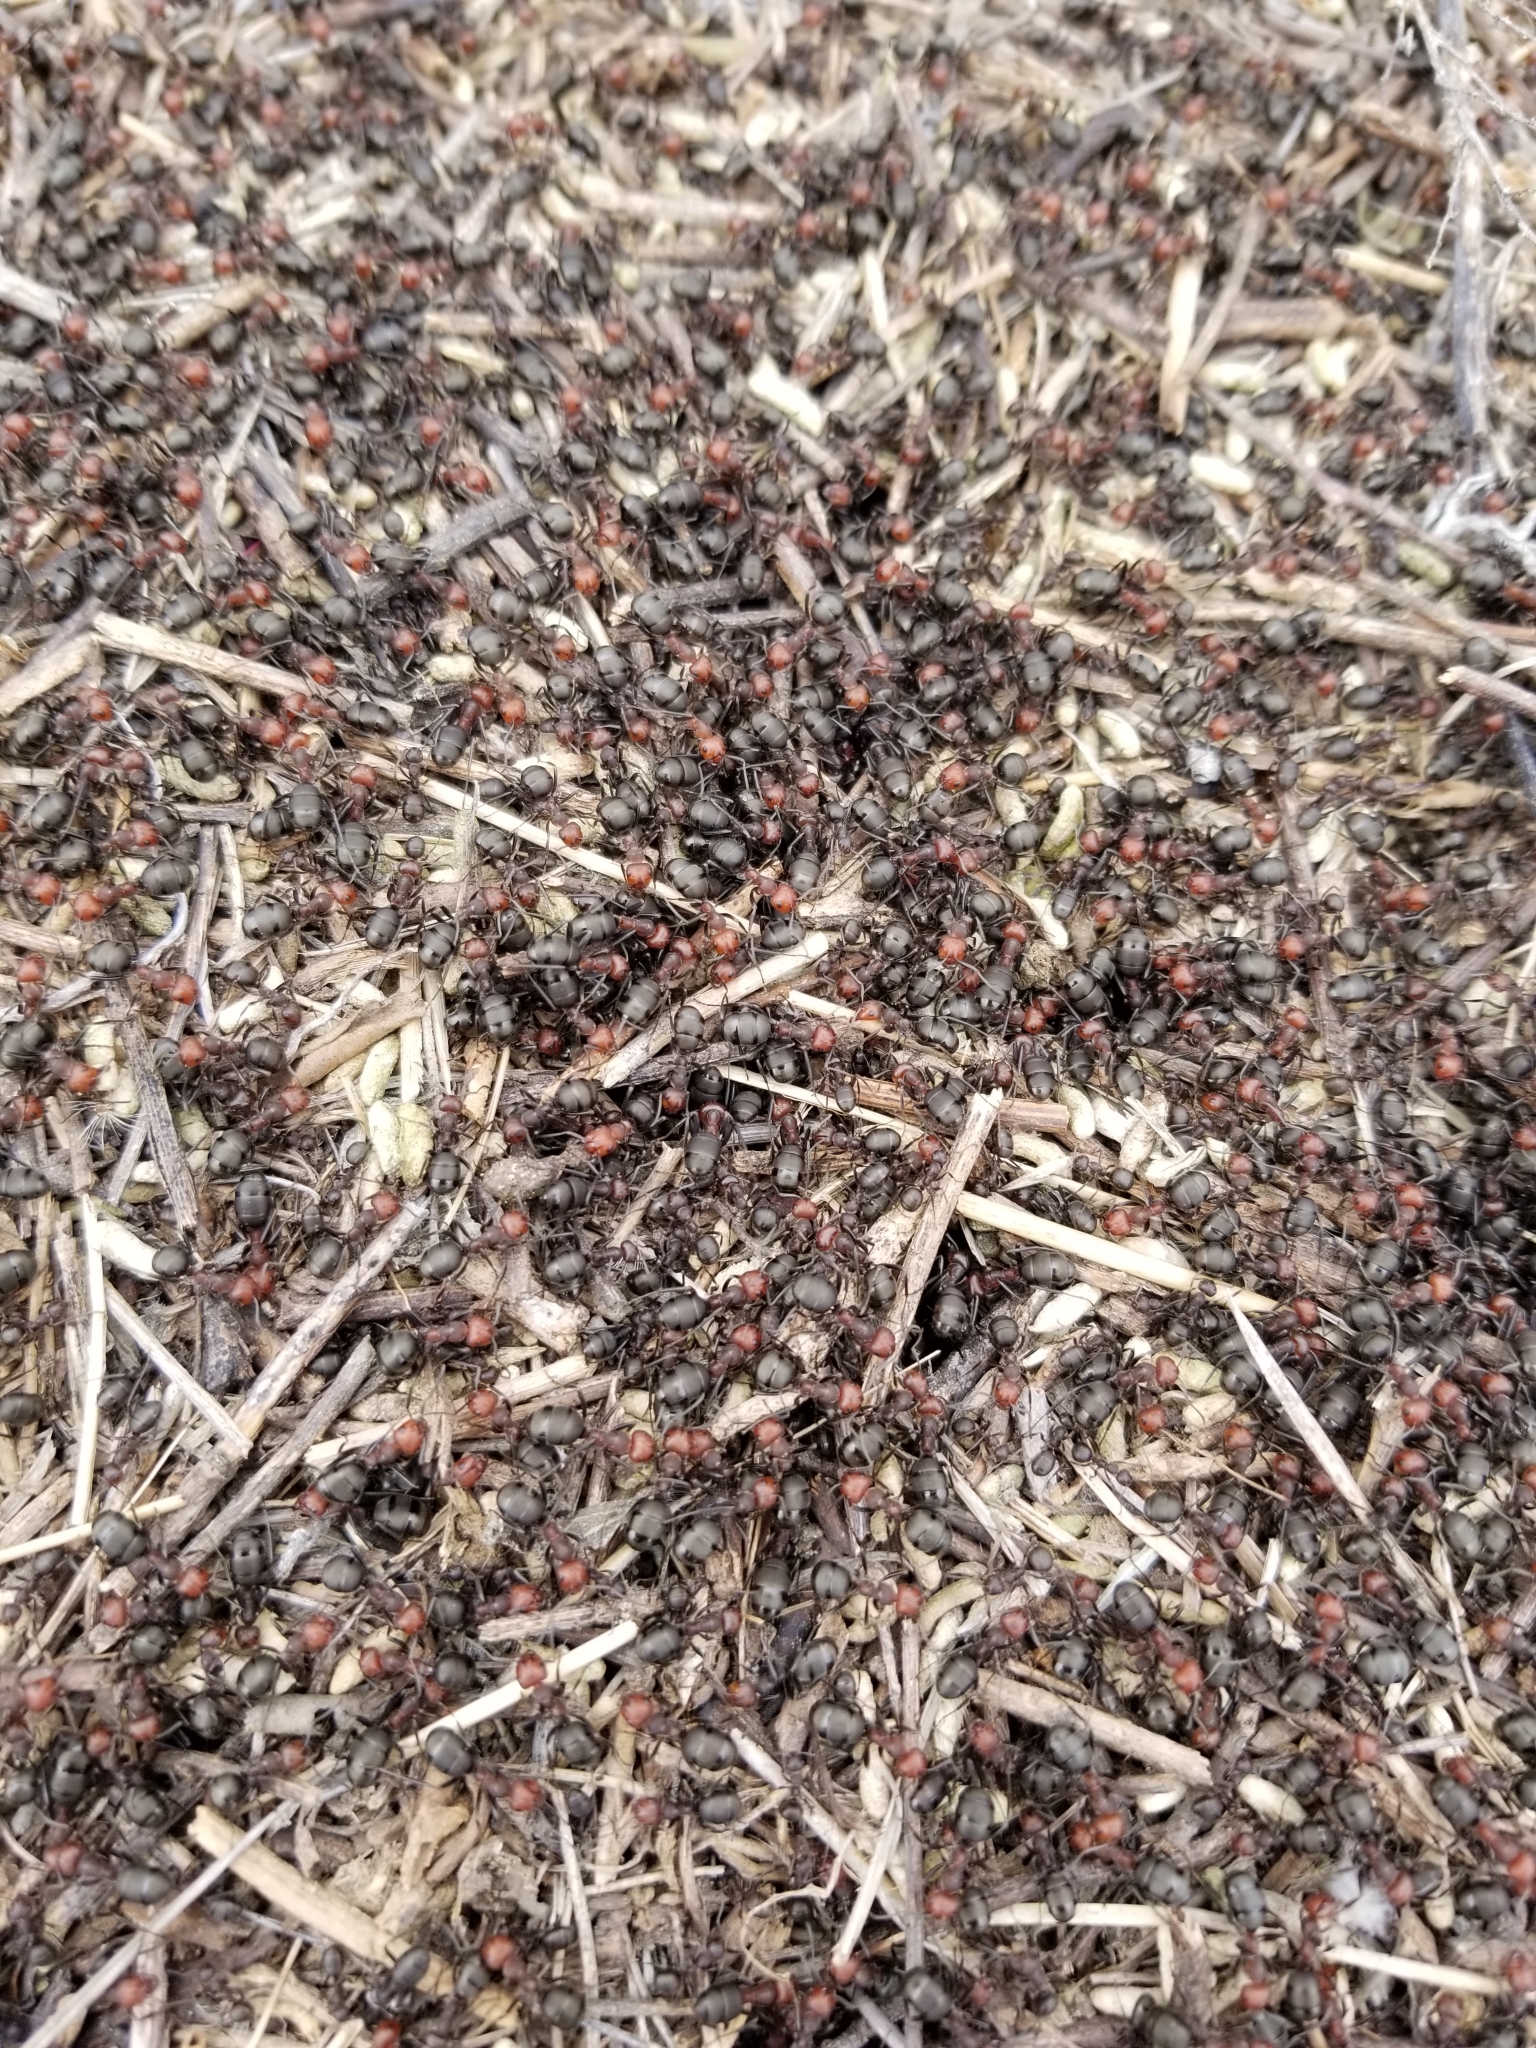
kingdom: Animalia
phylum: Arthropoda
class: Insecta
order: Hymenoptera
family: Formicidae
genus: Formica
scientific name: Formica obscuripes
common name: Western thatching ant
